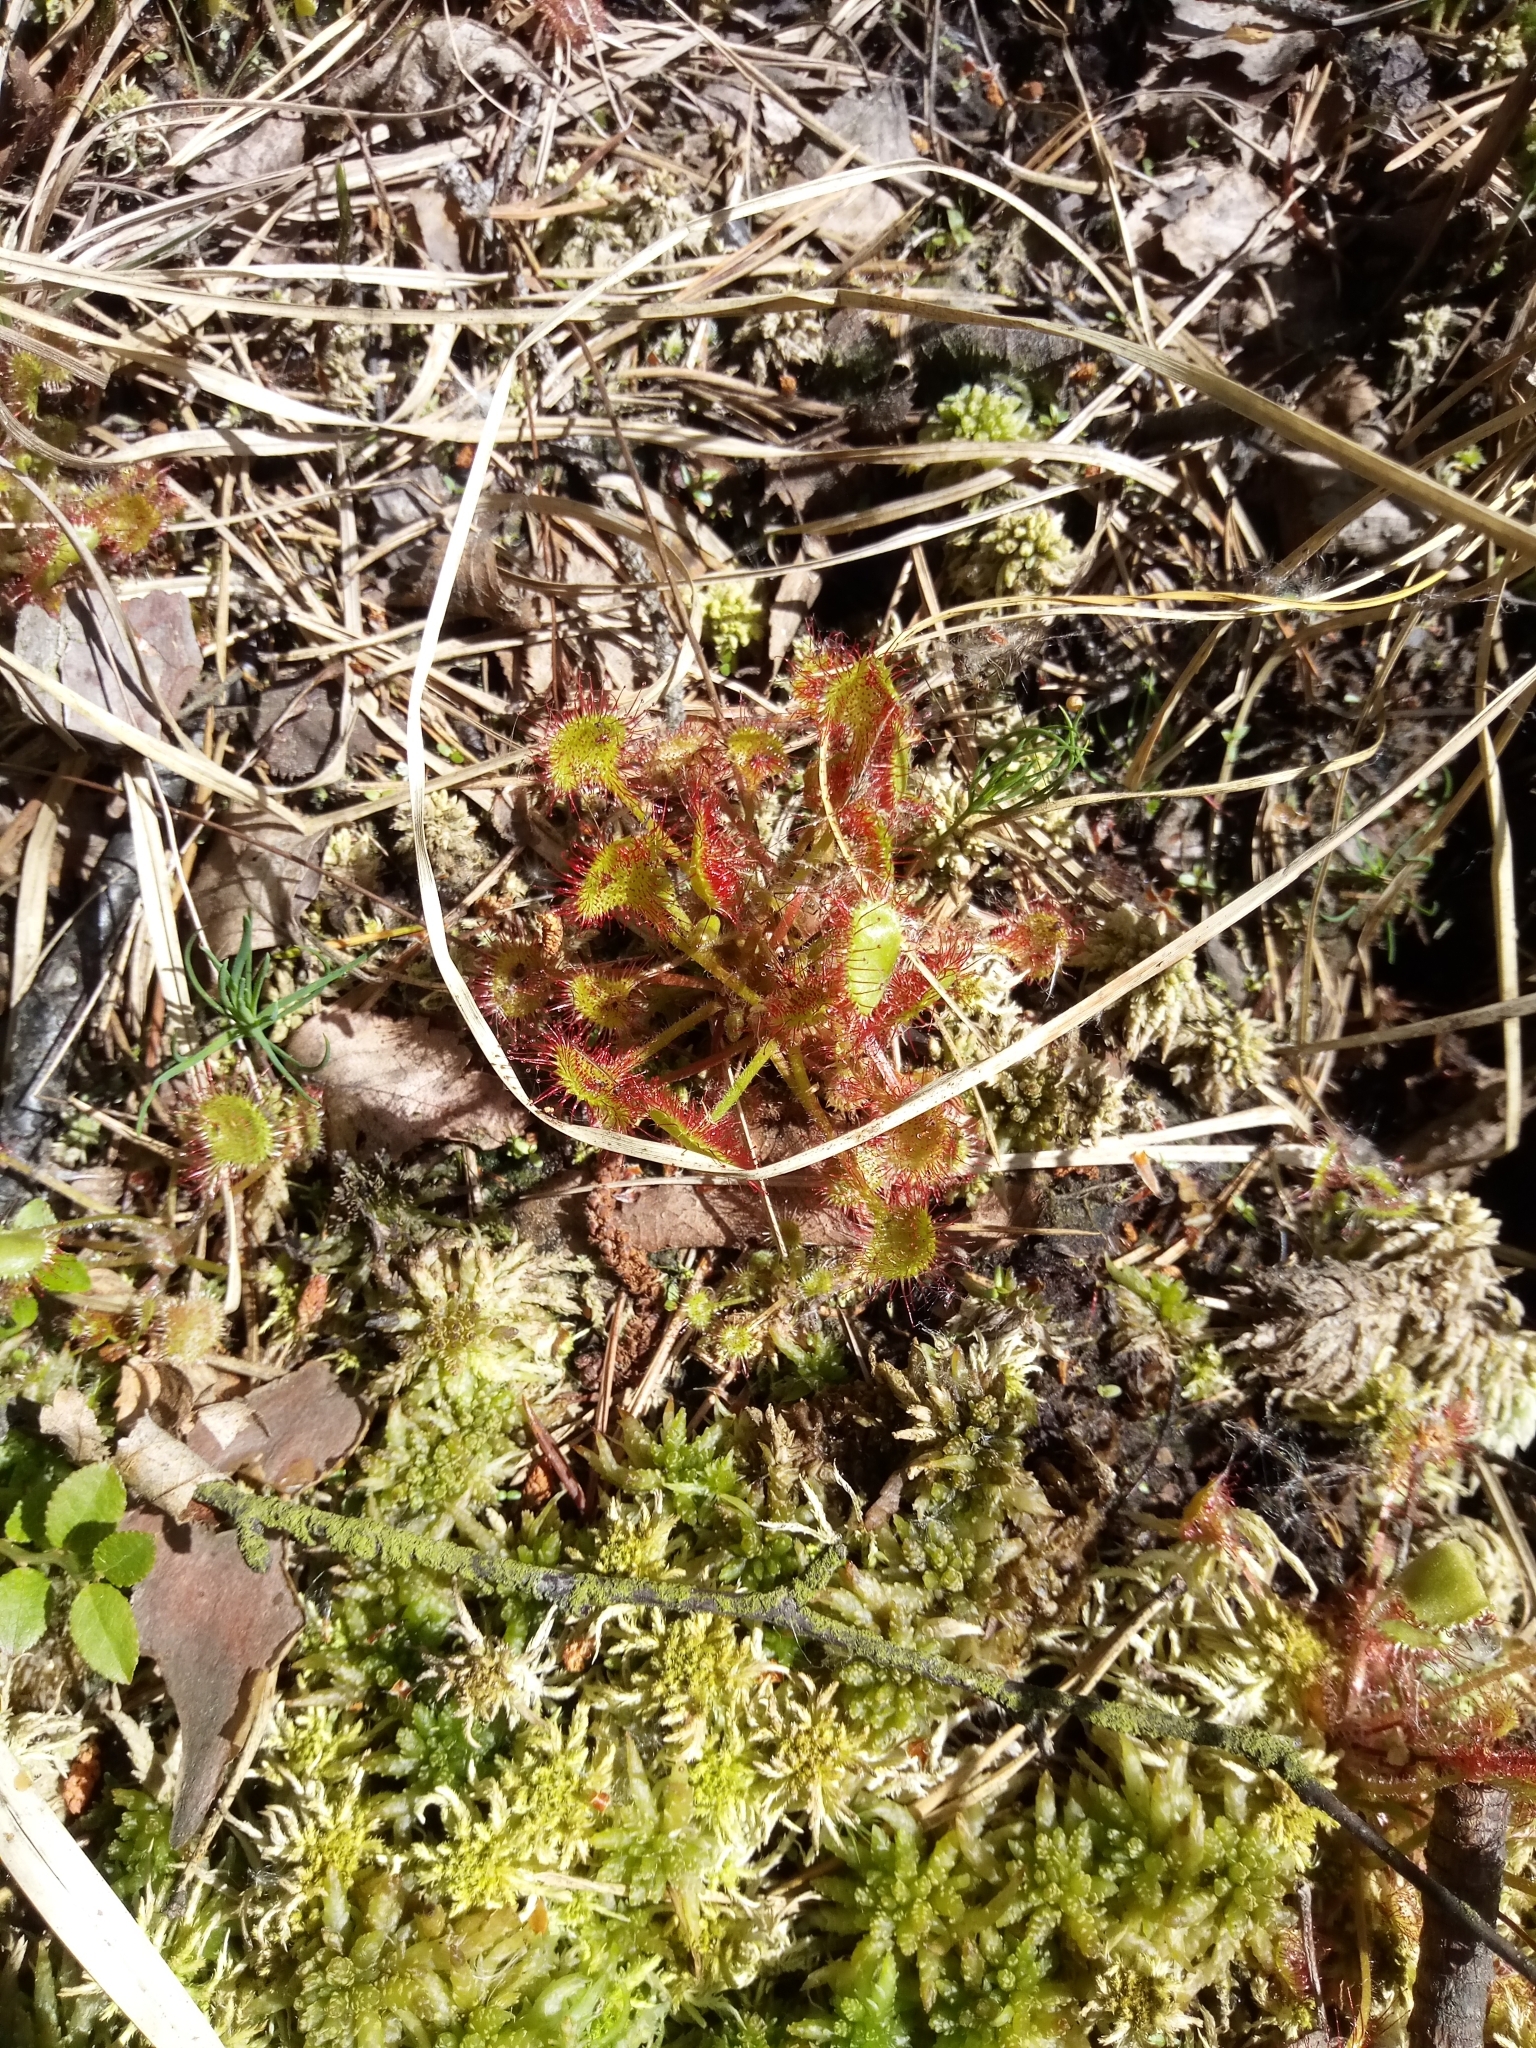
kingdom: Plantae
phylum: Tracheophyta
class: Magnoliopsida
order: Caryophyllales
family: Droseraceae
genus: Drosera
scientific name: Drosera rotundifolia
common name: Round-leaved sundew
